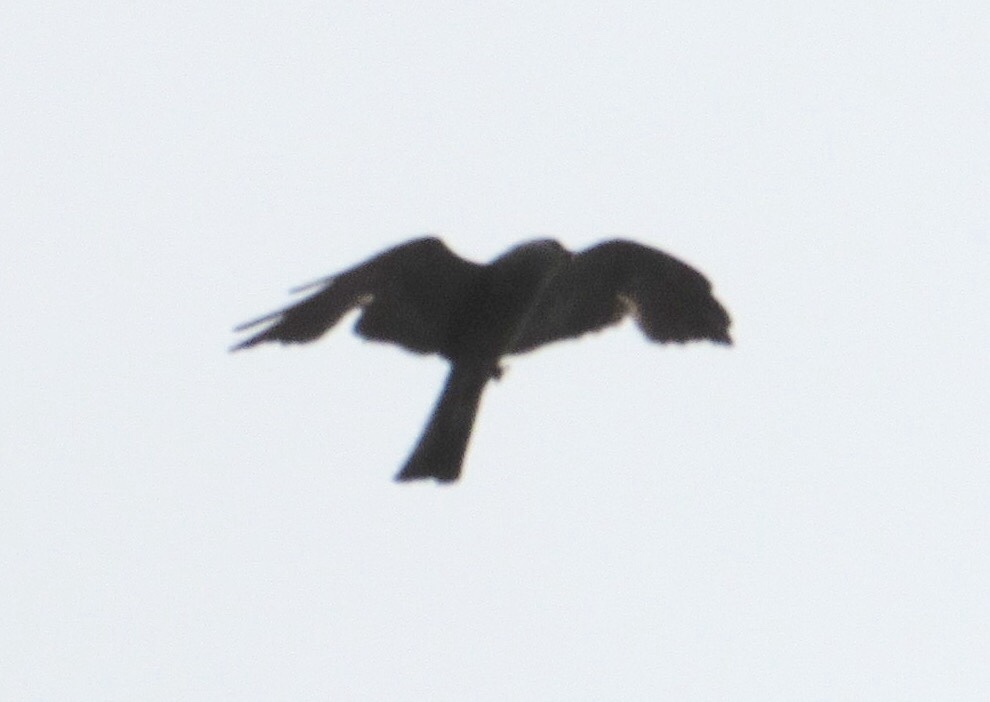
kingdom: Animalia
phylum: Chordata
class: Aves
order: Accipitriformes
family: Accipitridae
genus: Ictinia
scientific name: Ictinia mississippiensis
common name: Mississippi kite
